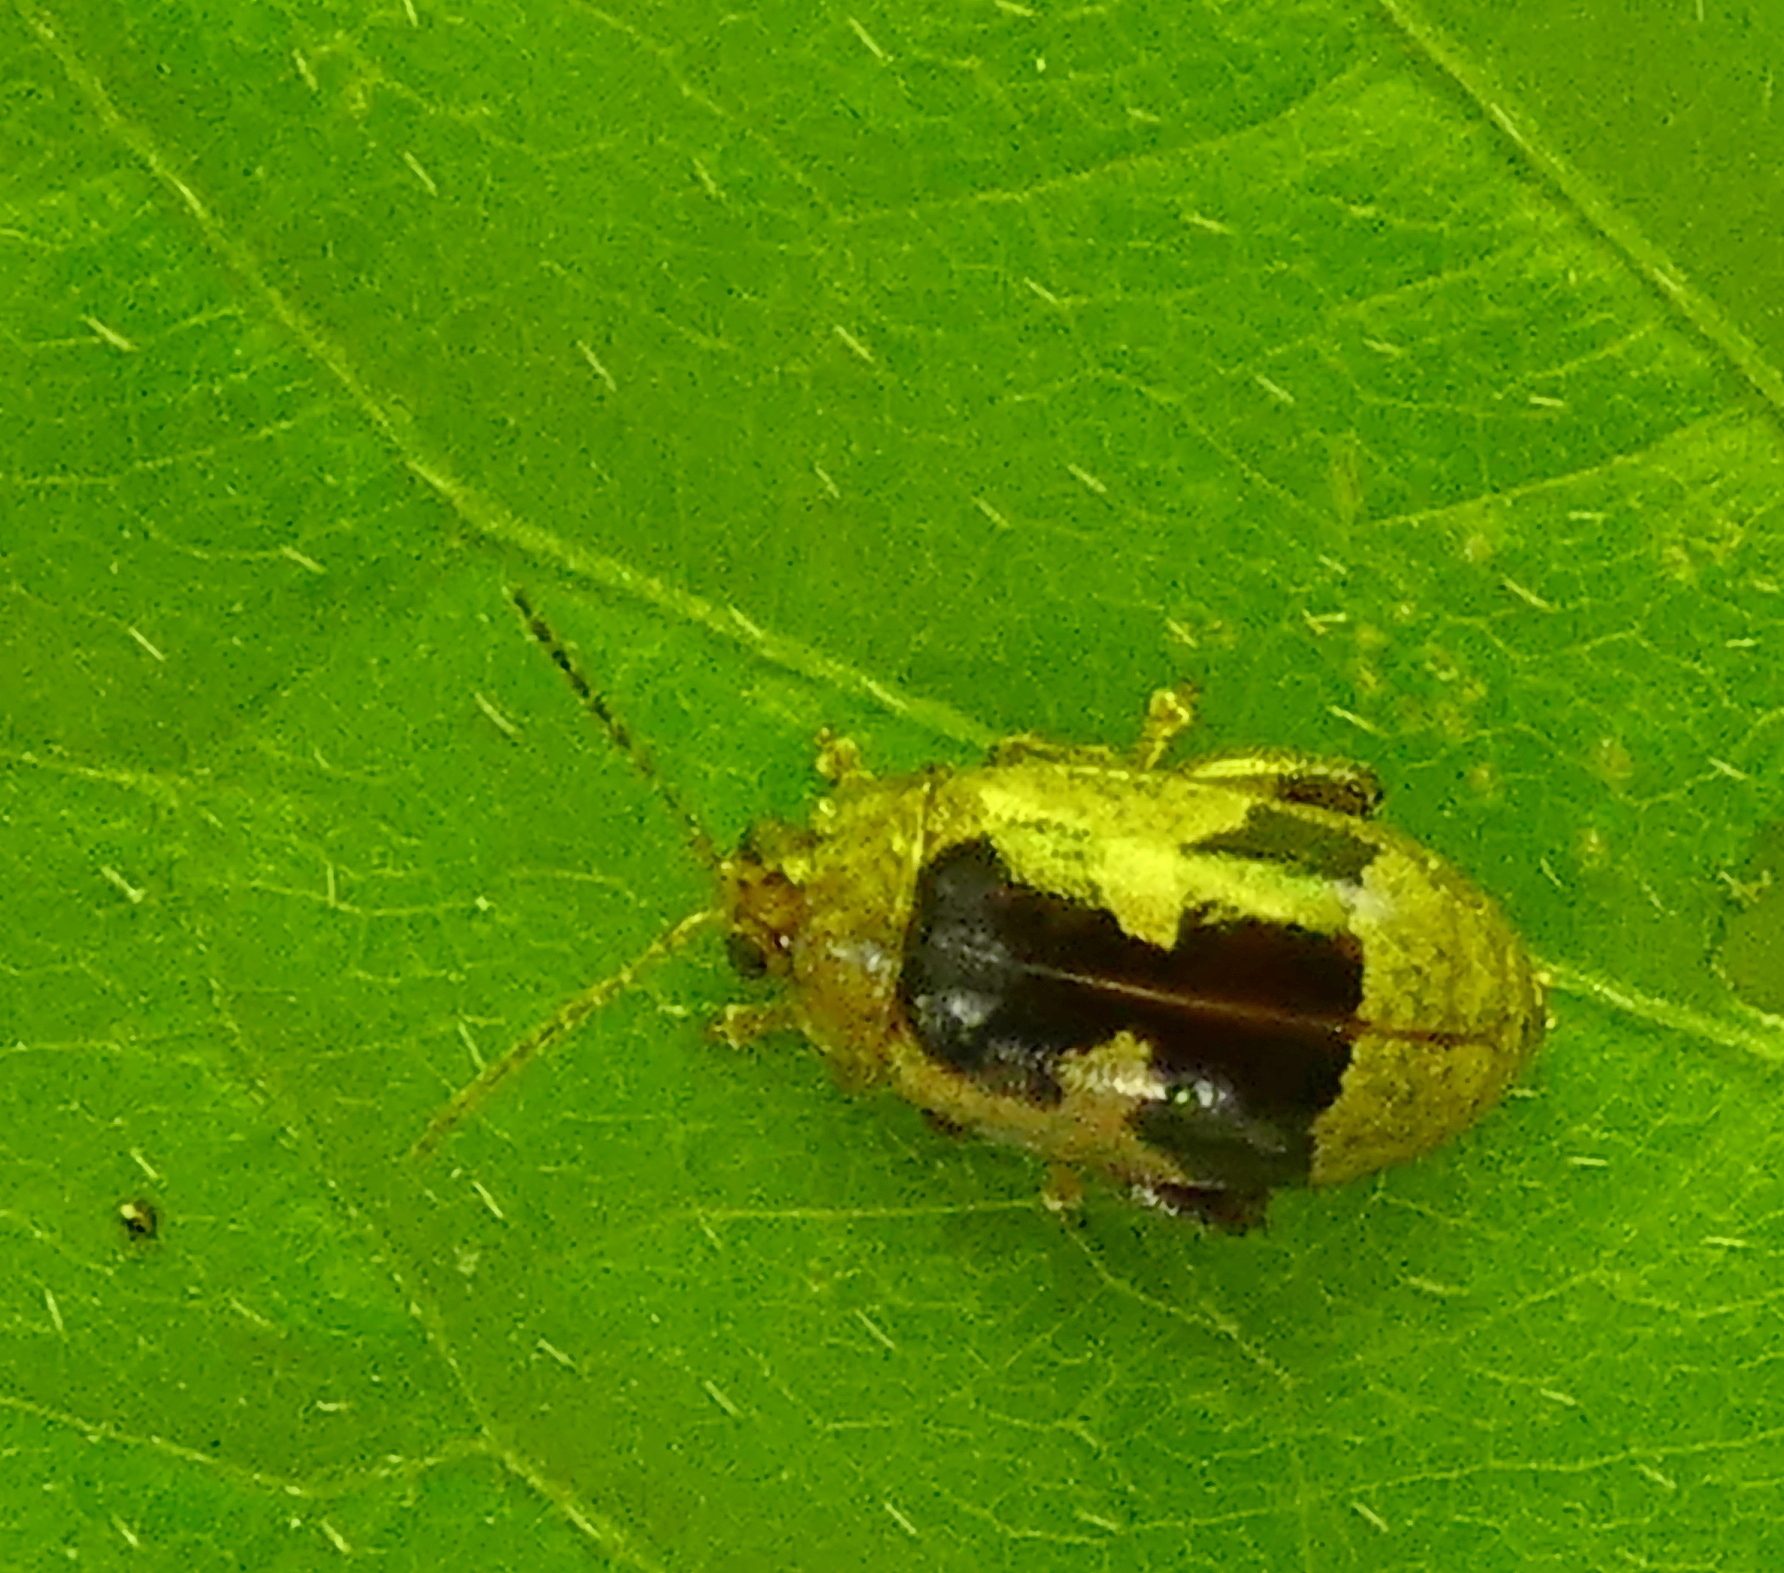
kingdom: Animalia
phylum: Arthropoda
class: Insecta
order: Coleoptera
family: Chrysomelidae
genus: Alagoasa
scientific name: Alagoasa
